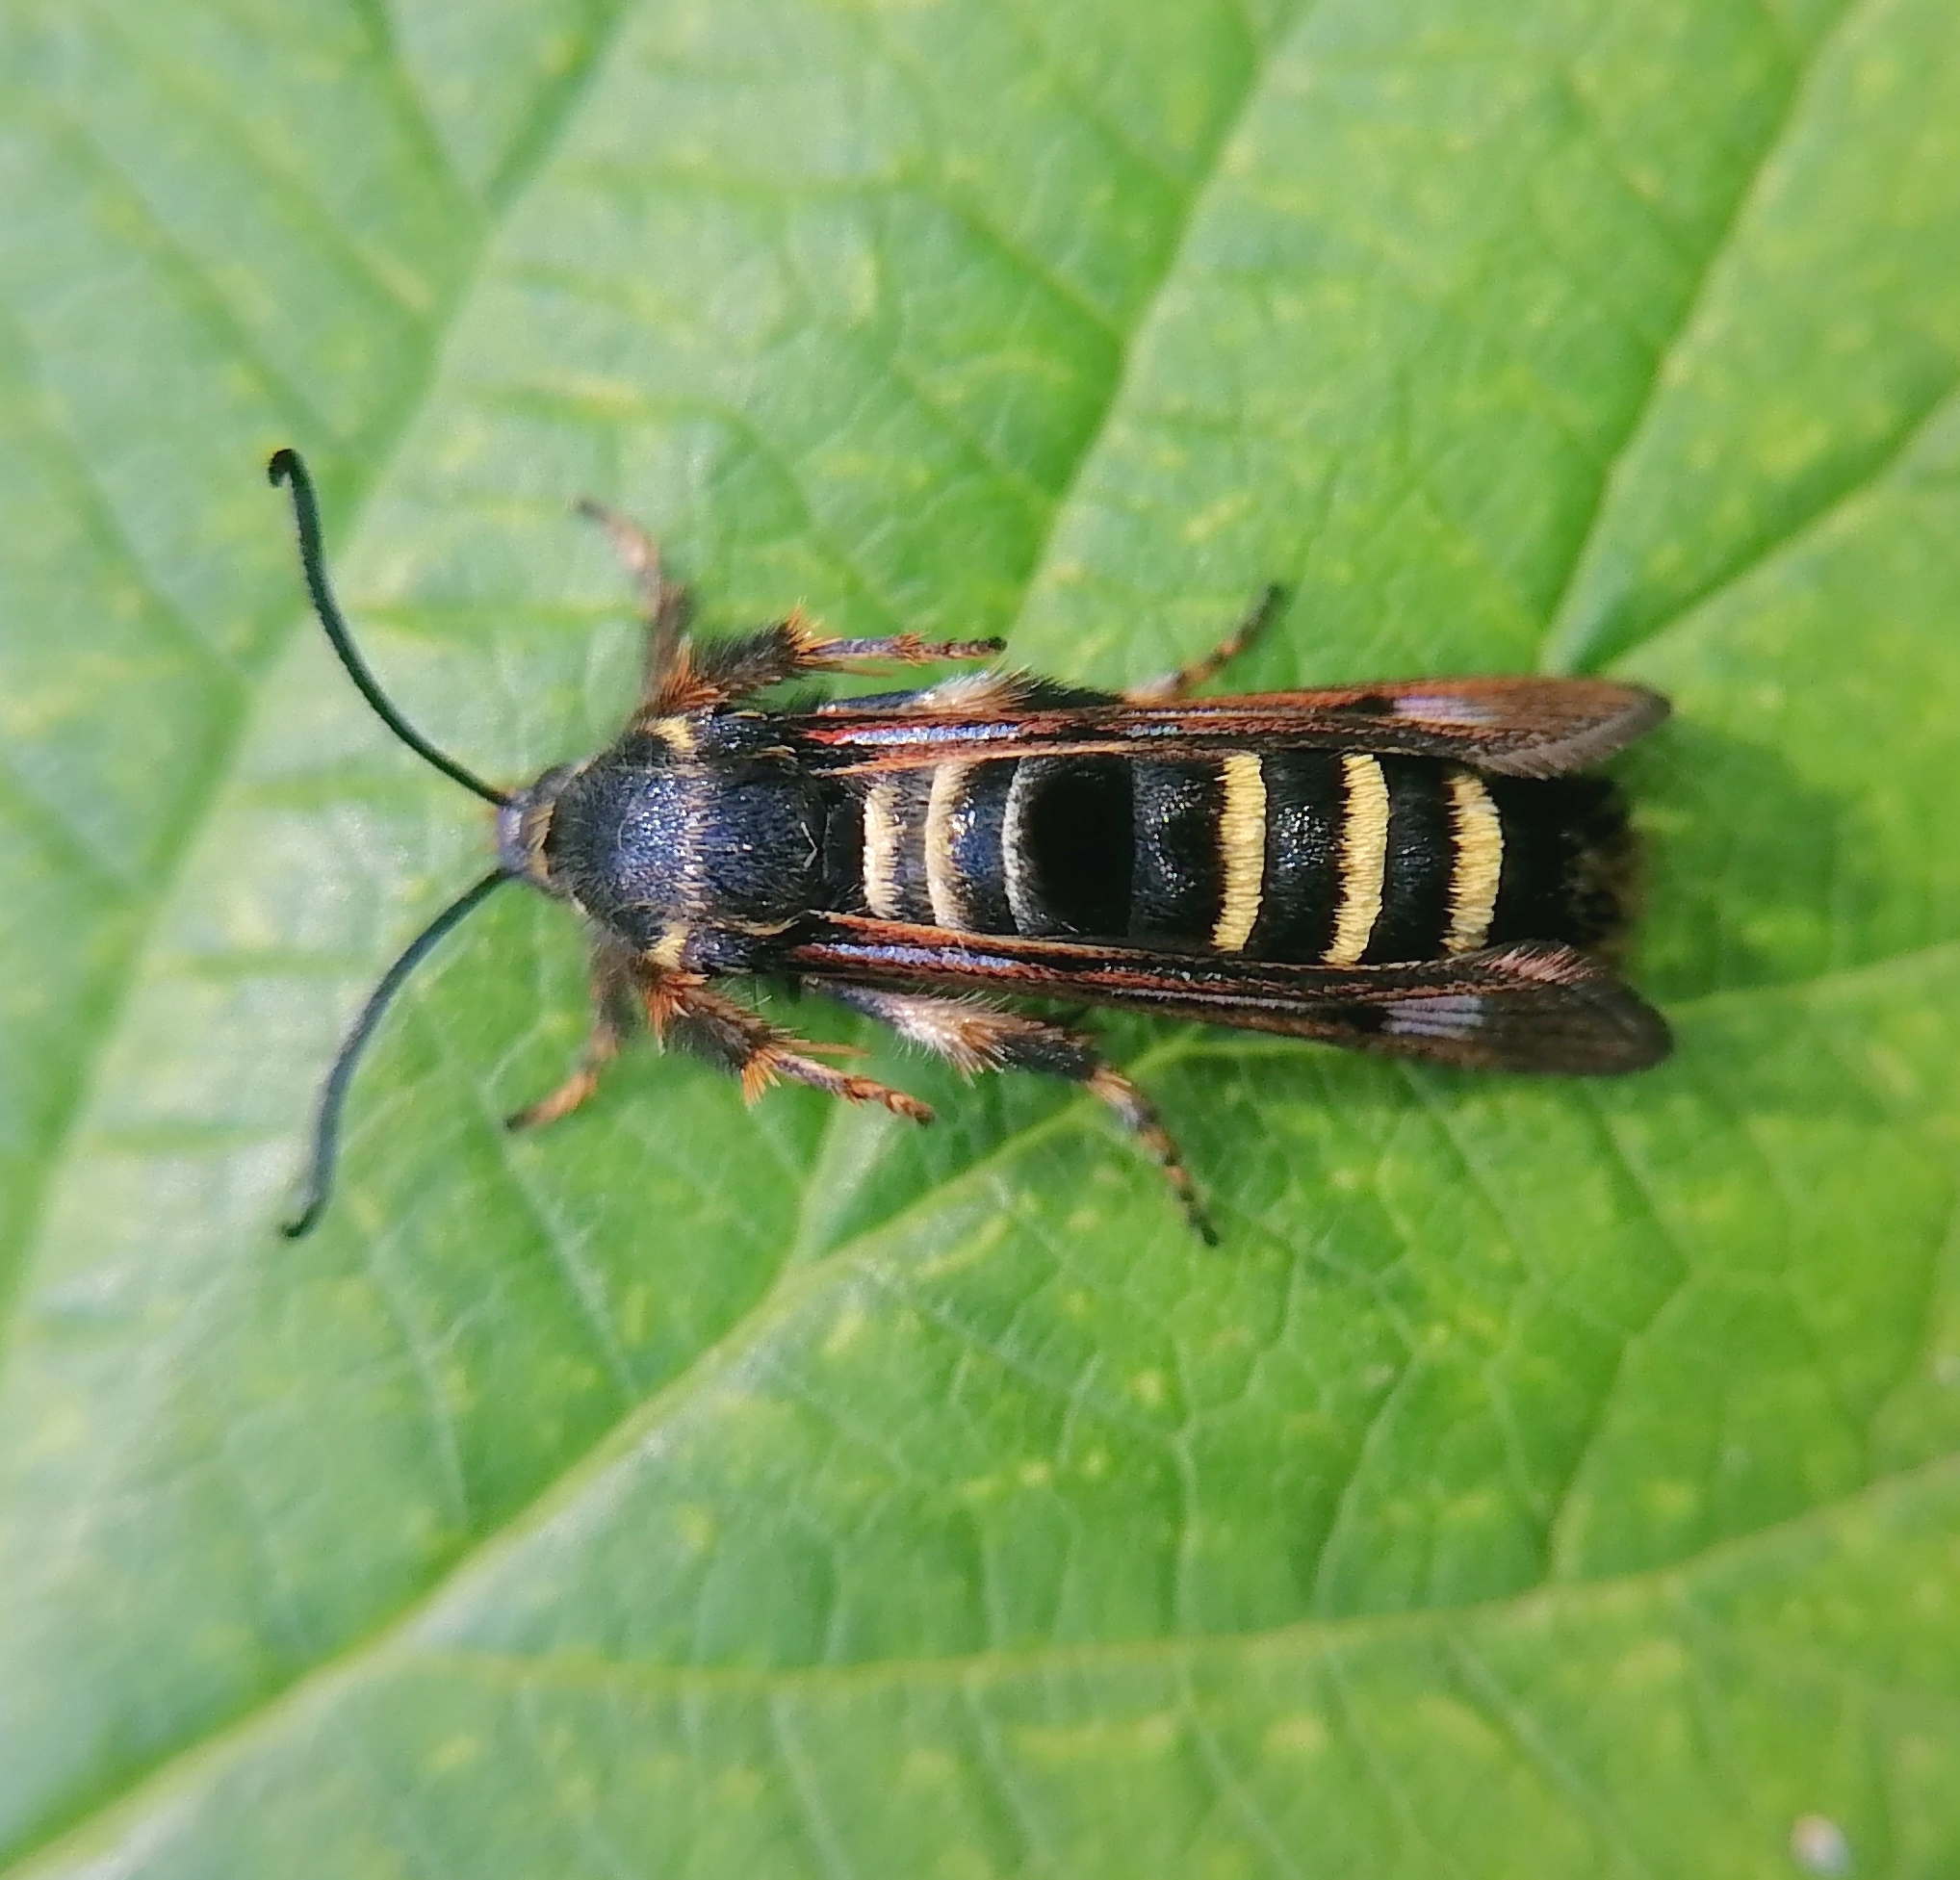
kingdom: Animalia
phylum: Arthropoda
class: Insecta
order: Lepidoptera
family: Sesiidae
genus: Pennisetia
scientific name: Pennisetia hylaeiformis
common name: Raspberry clearwing
